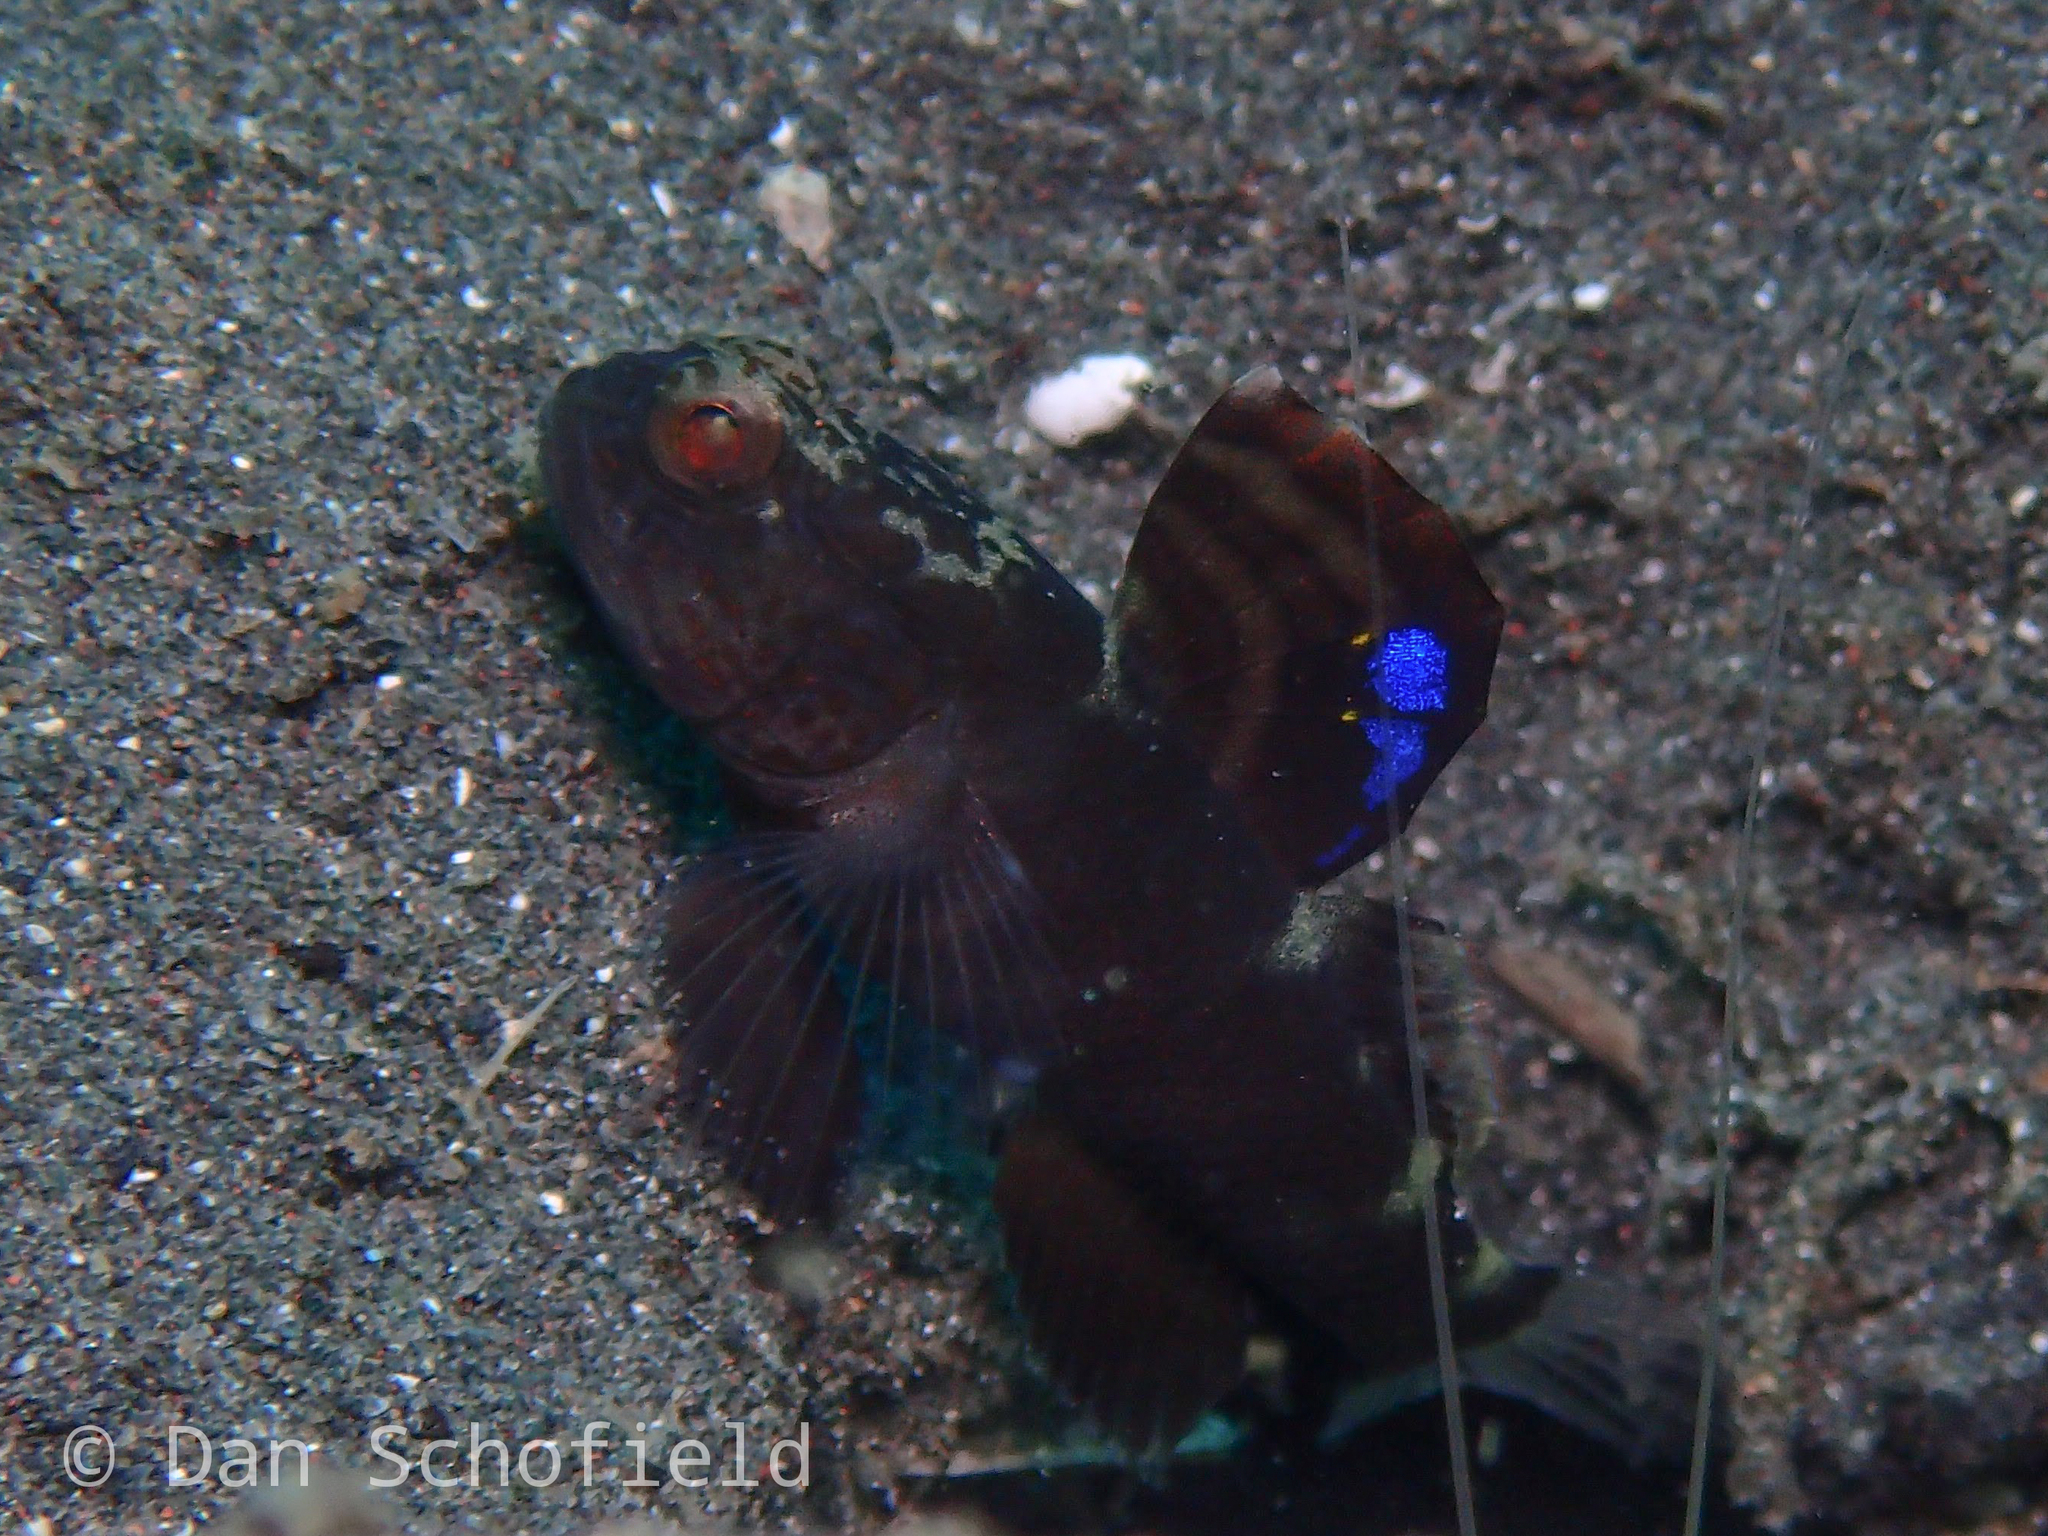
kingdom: Animalia
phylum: Chordata
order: Perciformes
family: Gobiidae
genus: Mahidolia
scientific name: Mahidolia mystacina
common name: Smiling goby
